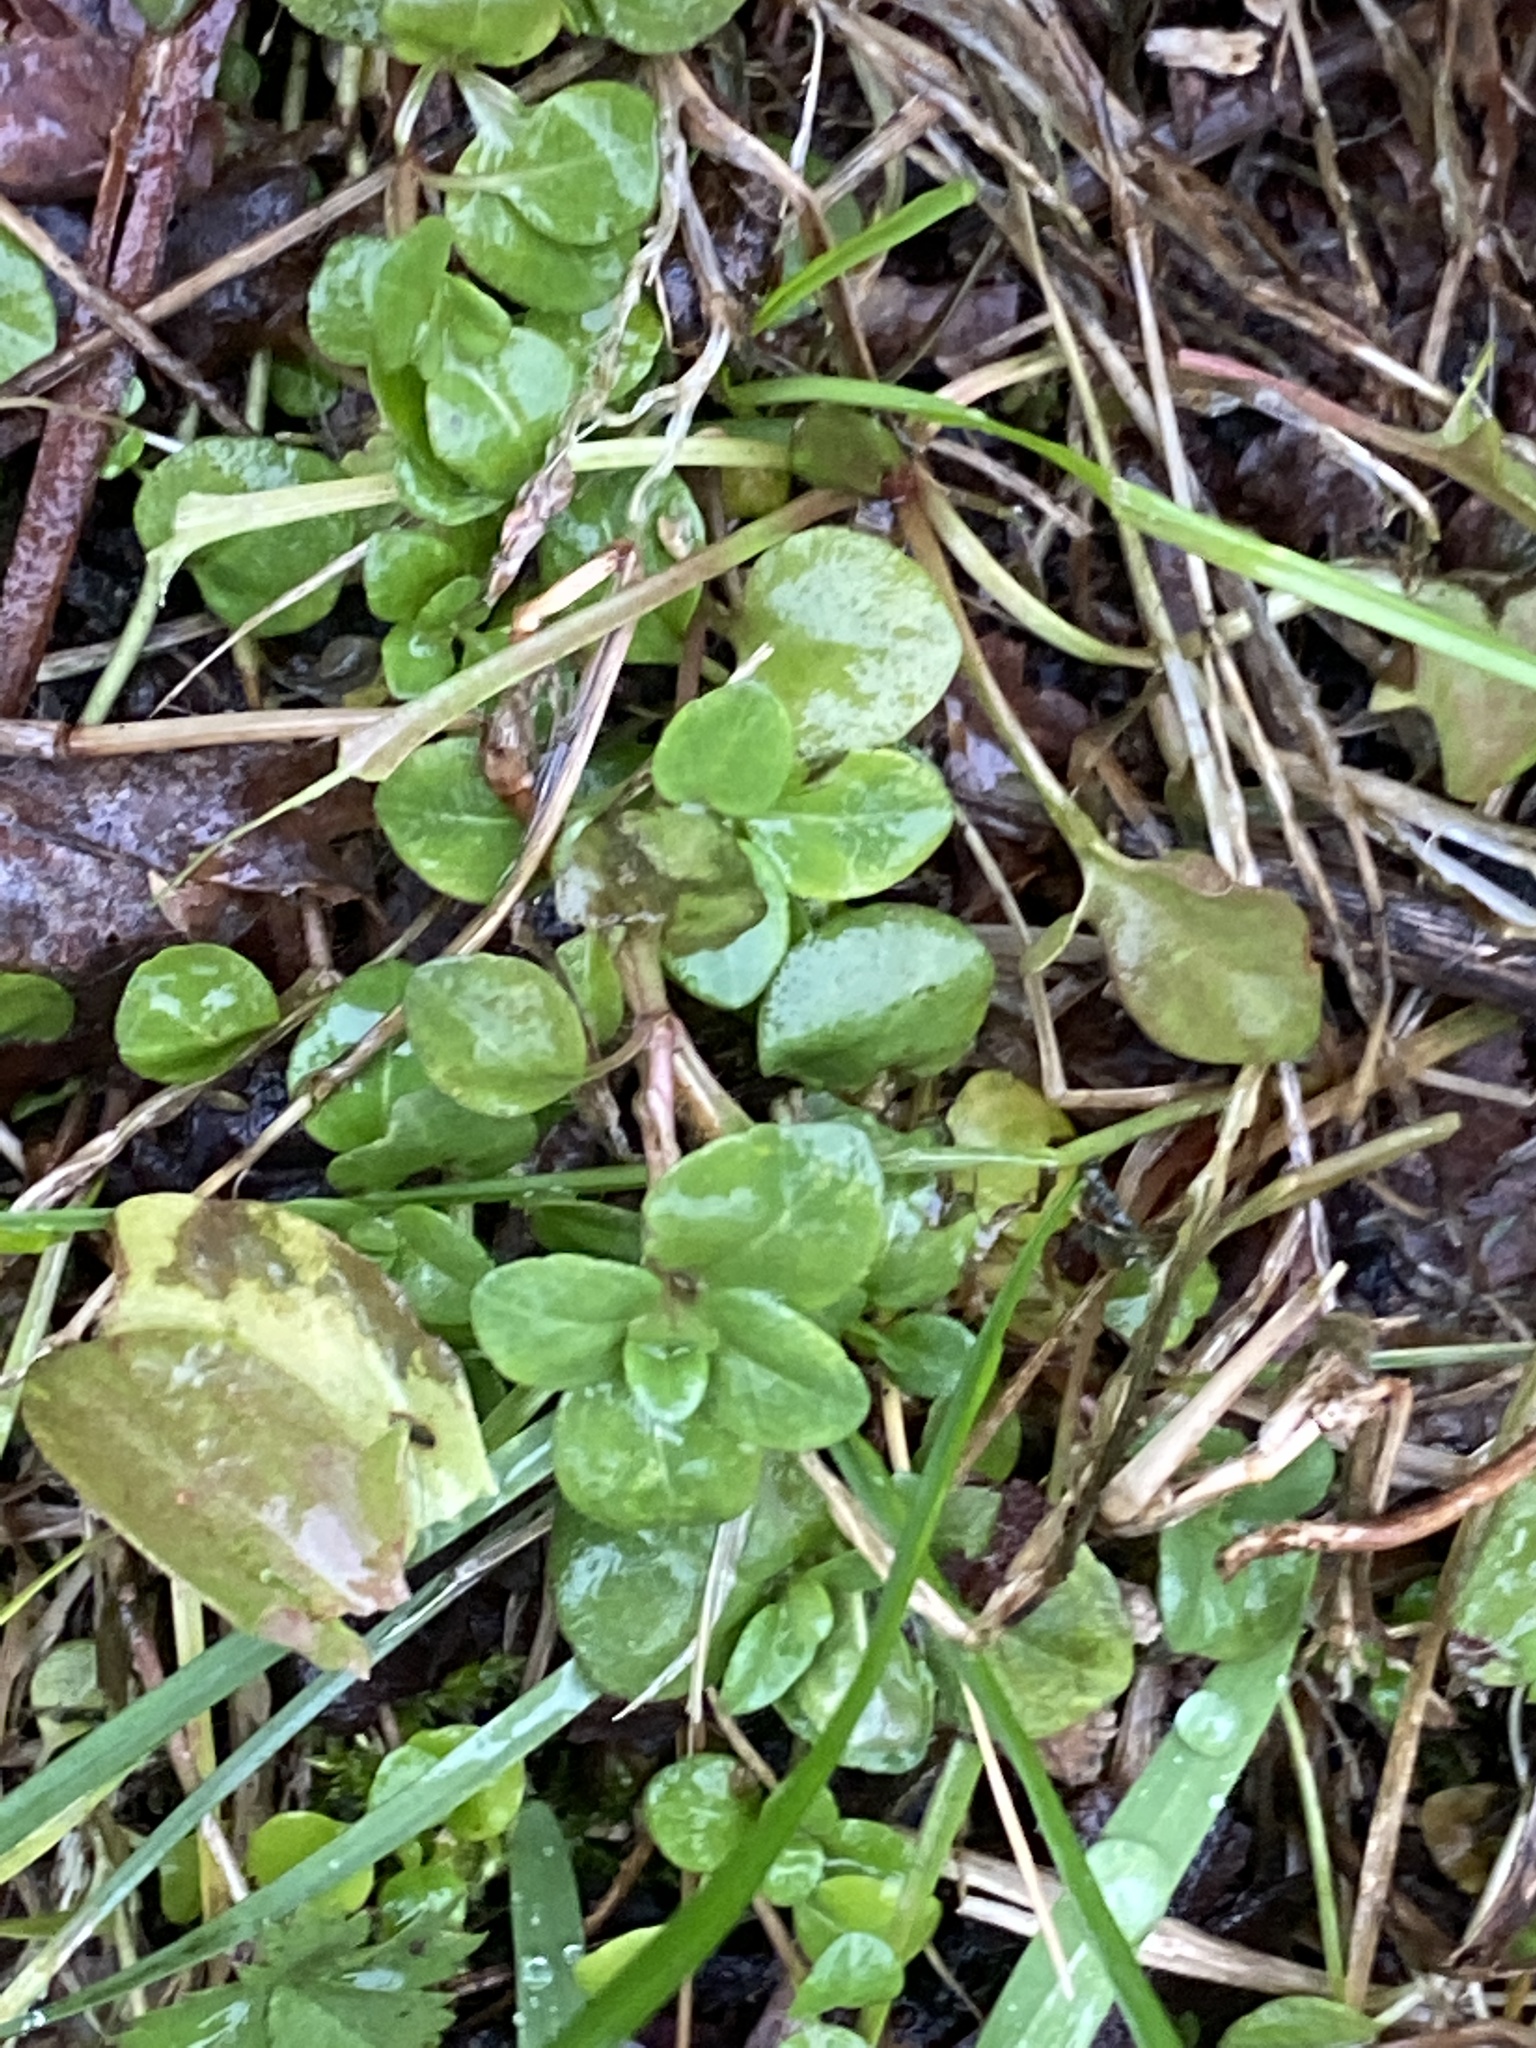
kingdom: Plantae
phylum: Tracheophyta
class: Magnoliopsida
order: Lamiales
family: Plantaginaceae
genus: Veronica
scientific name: Veronica serpyllifolia
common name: Thyme-leaved speedwell
